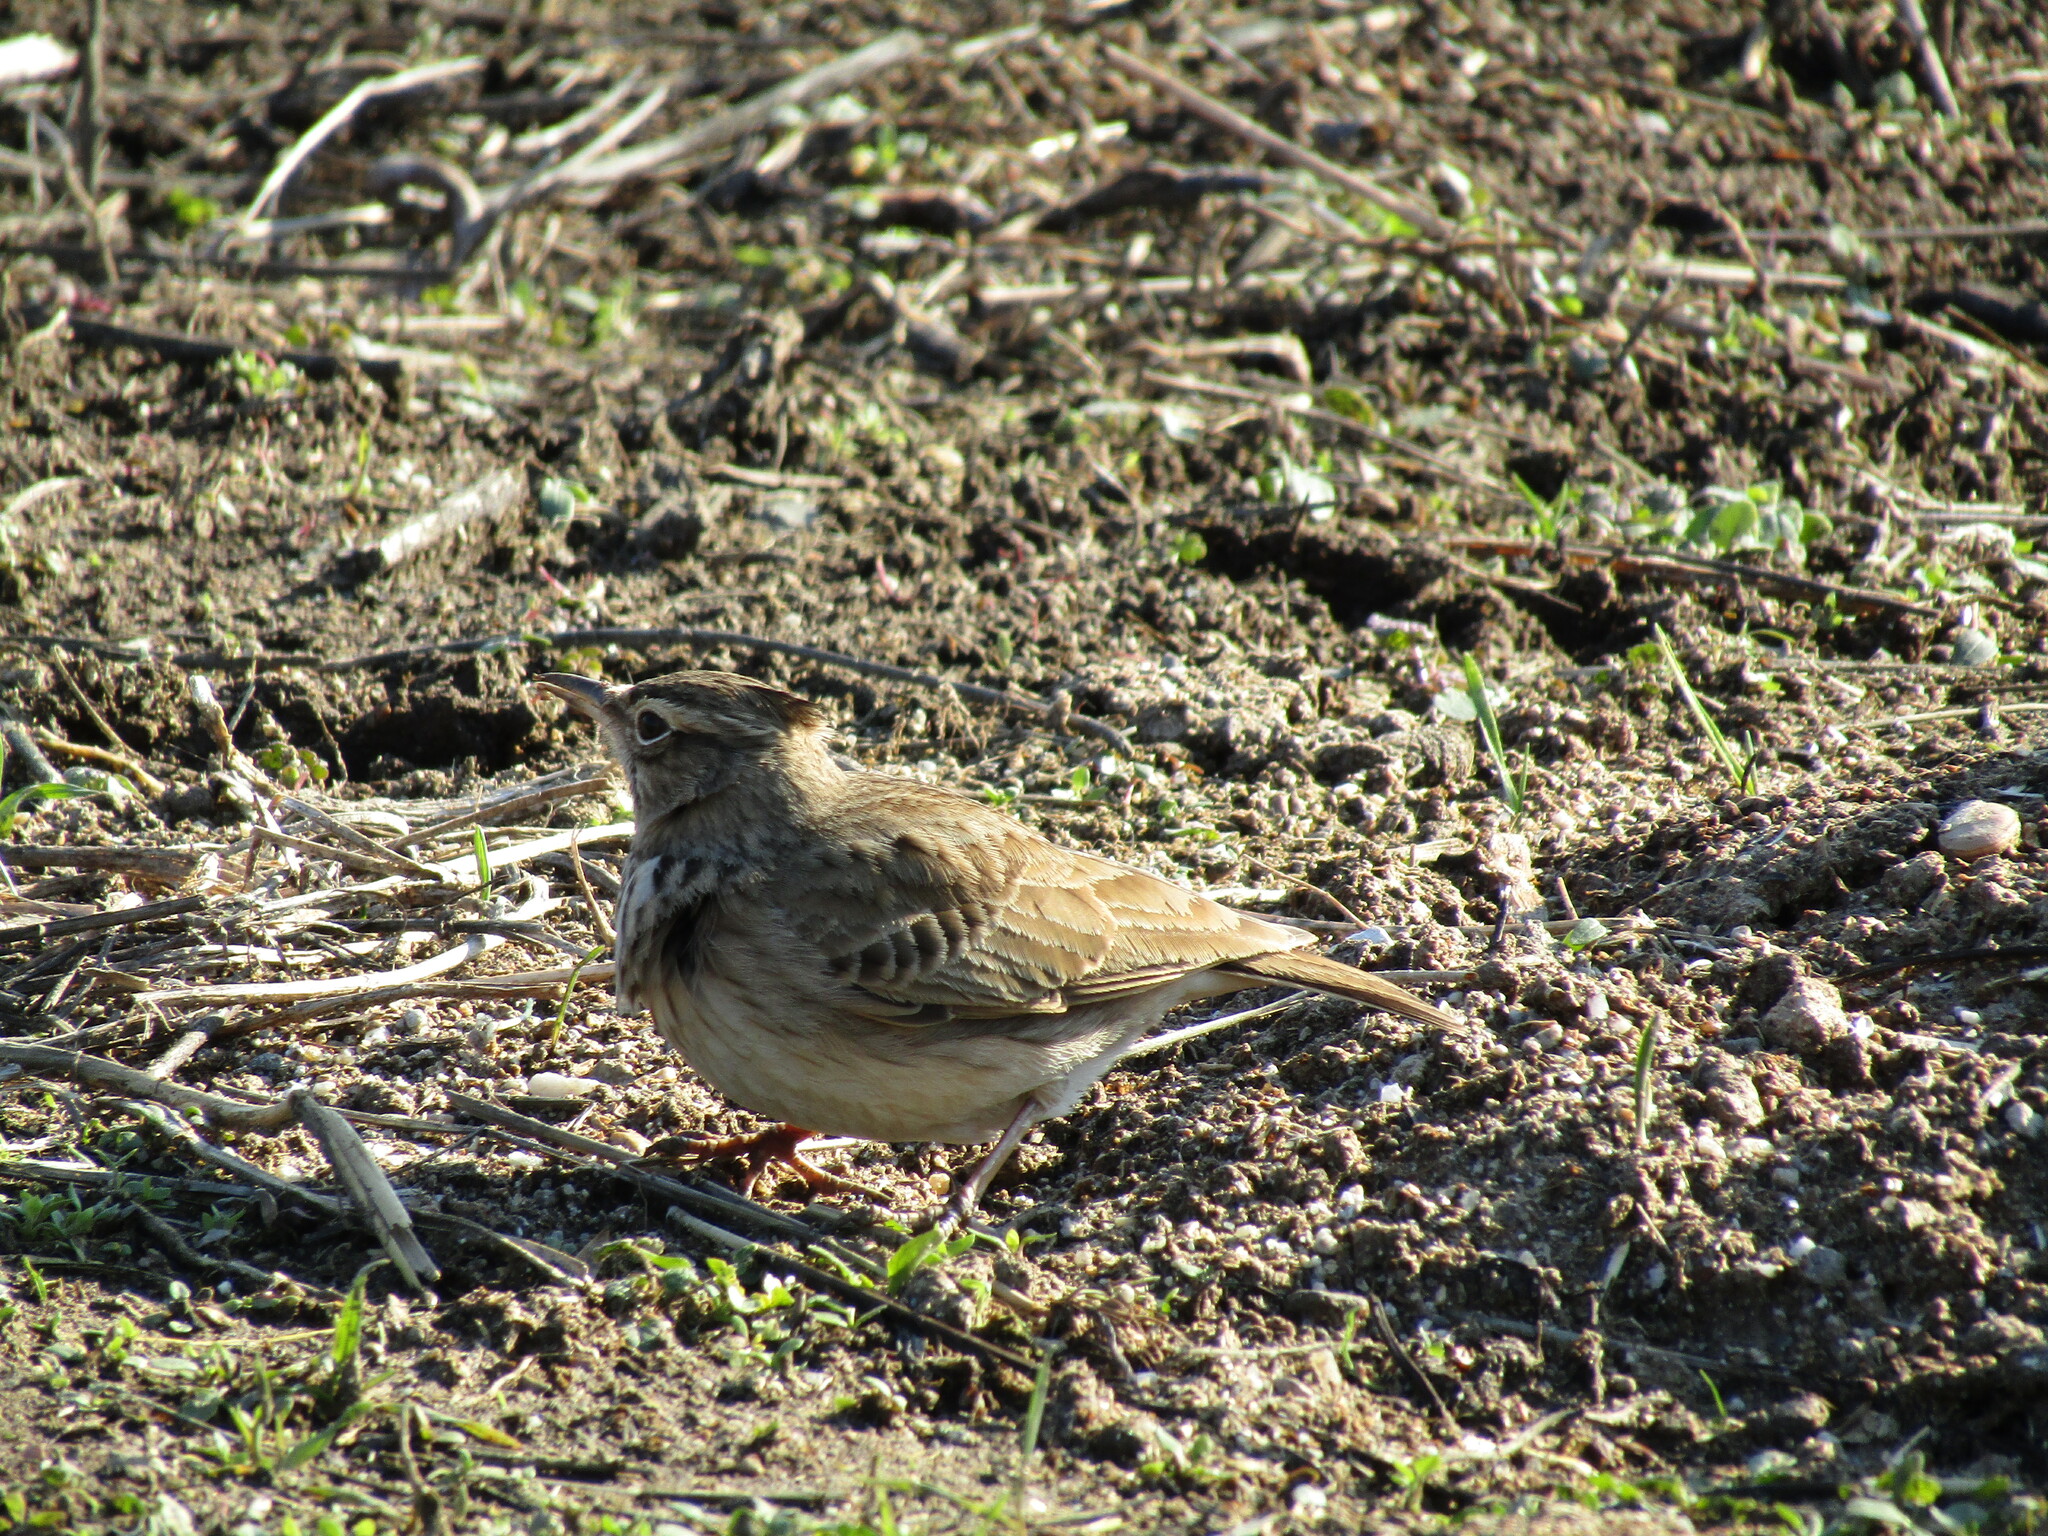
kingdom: Animalia
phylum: Chordata
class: Aves
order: Passeriformes
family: Alaudidae
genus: Galerida
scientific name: Galerida cristata
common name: Crested lark
